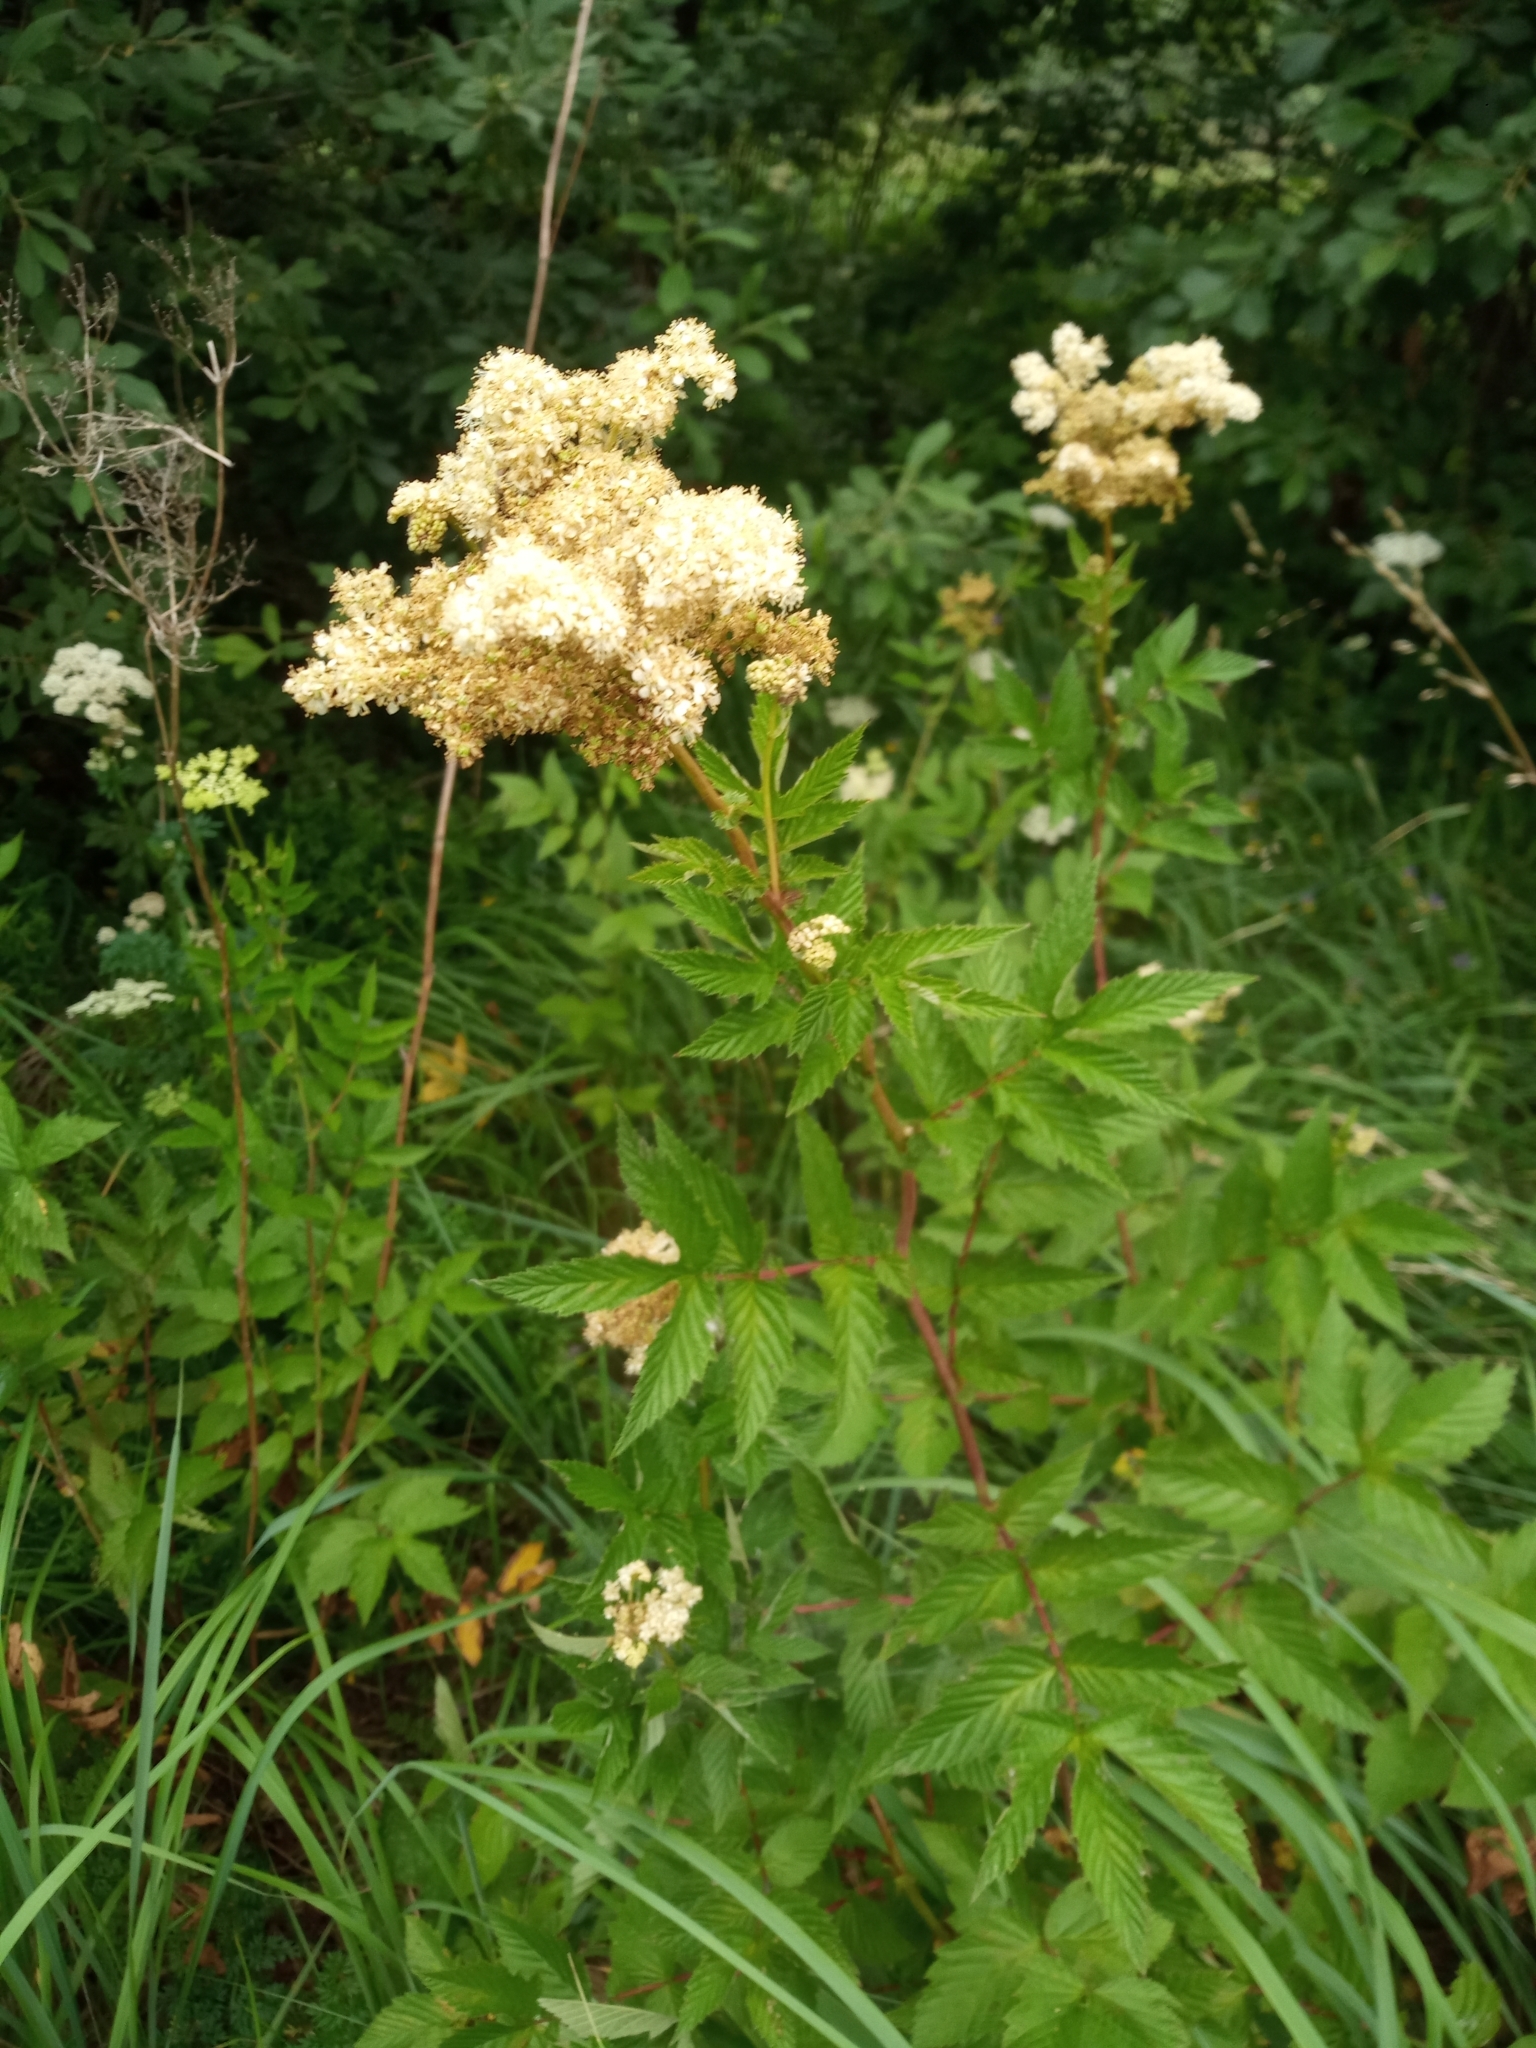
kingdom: Plantae
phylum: Tracheophyta
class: Magnoliopsida
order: Rosales
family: Rosaceae
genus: Filipendula
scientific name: Filipendula ulmaria
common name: Meadowsweet
